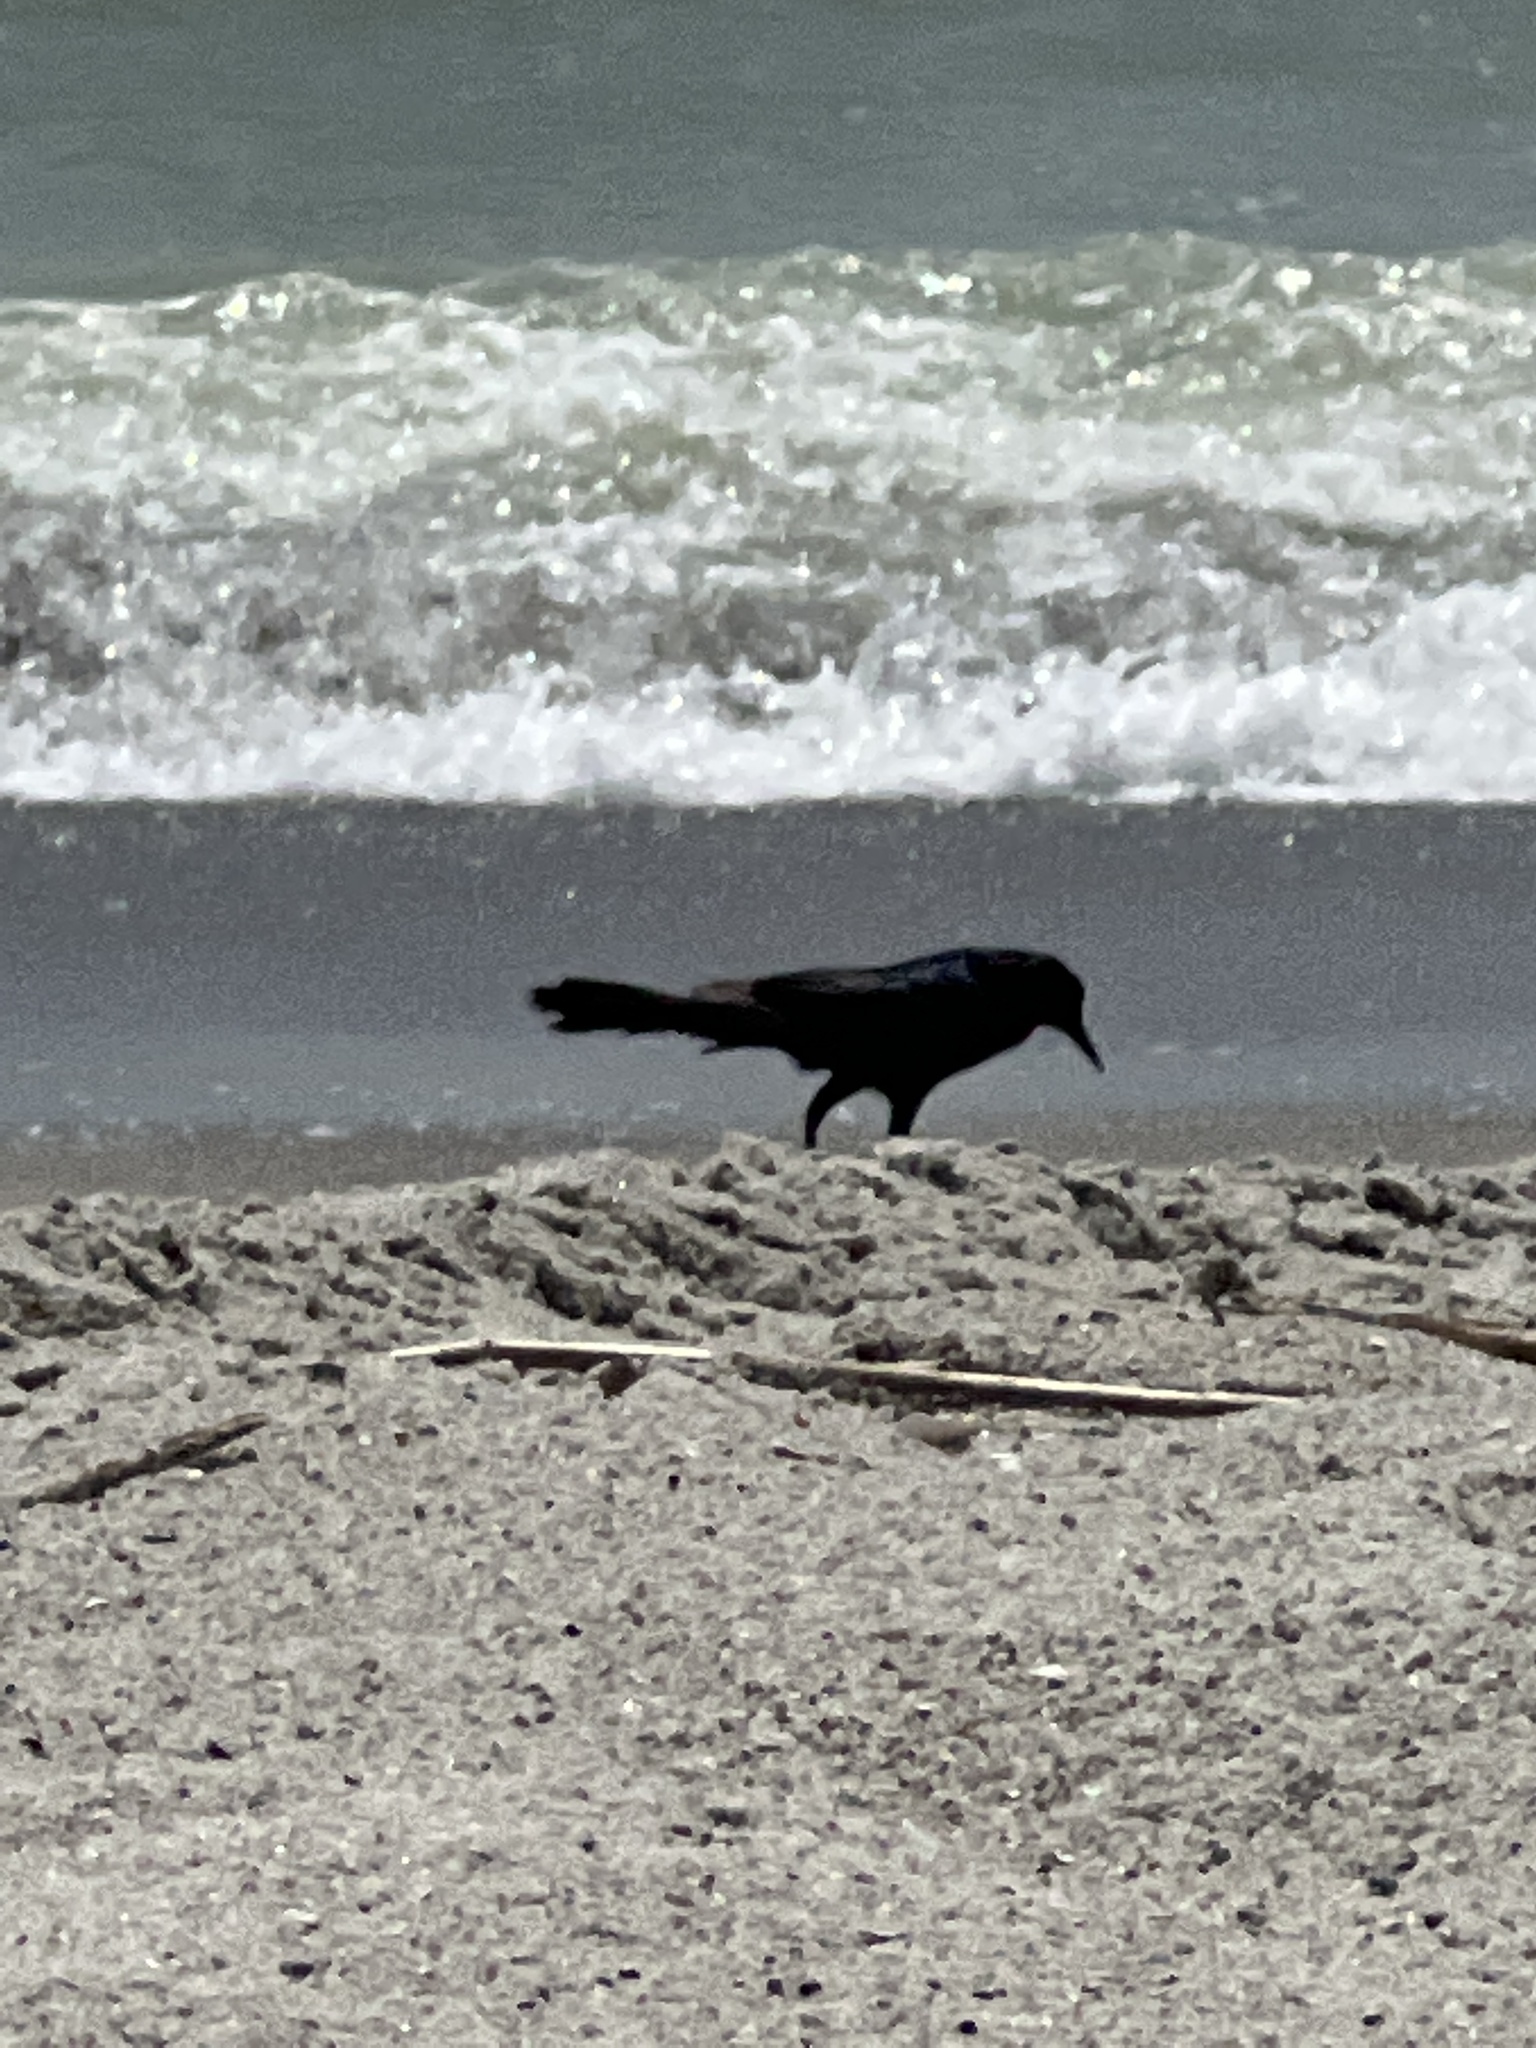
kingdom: Animalia
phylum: Chordata
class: Aves
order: Passeriformes
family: Icteridae
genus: Quiscalus
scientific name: Quiscalus major
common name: Boat-tailed grackle
